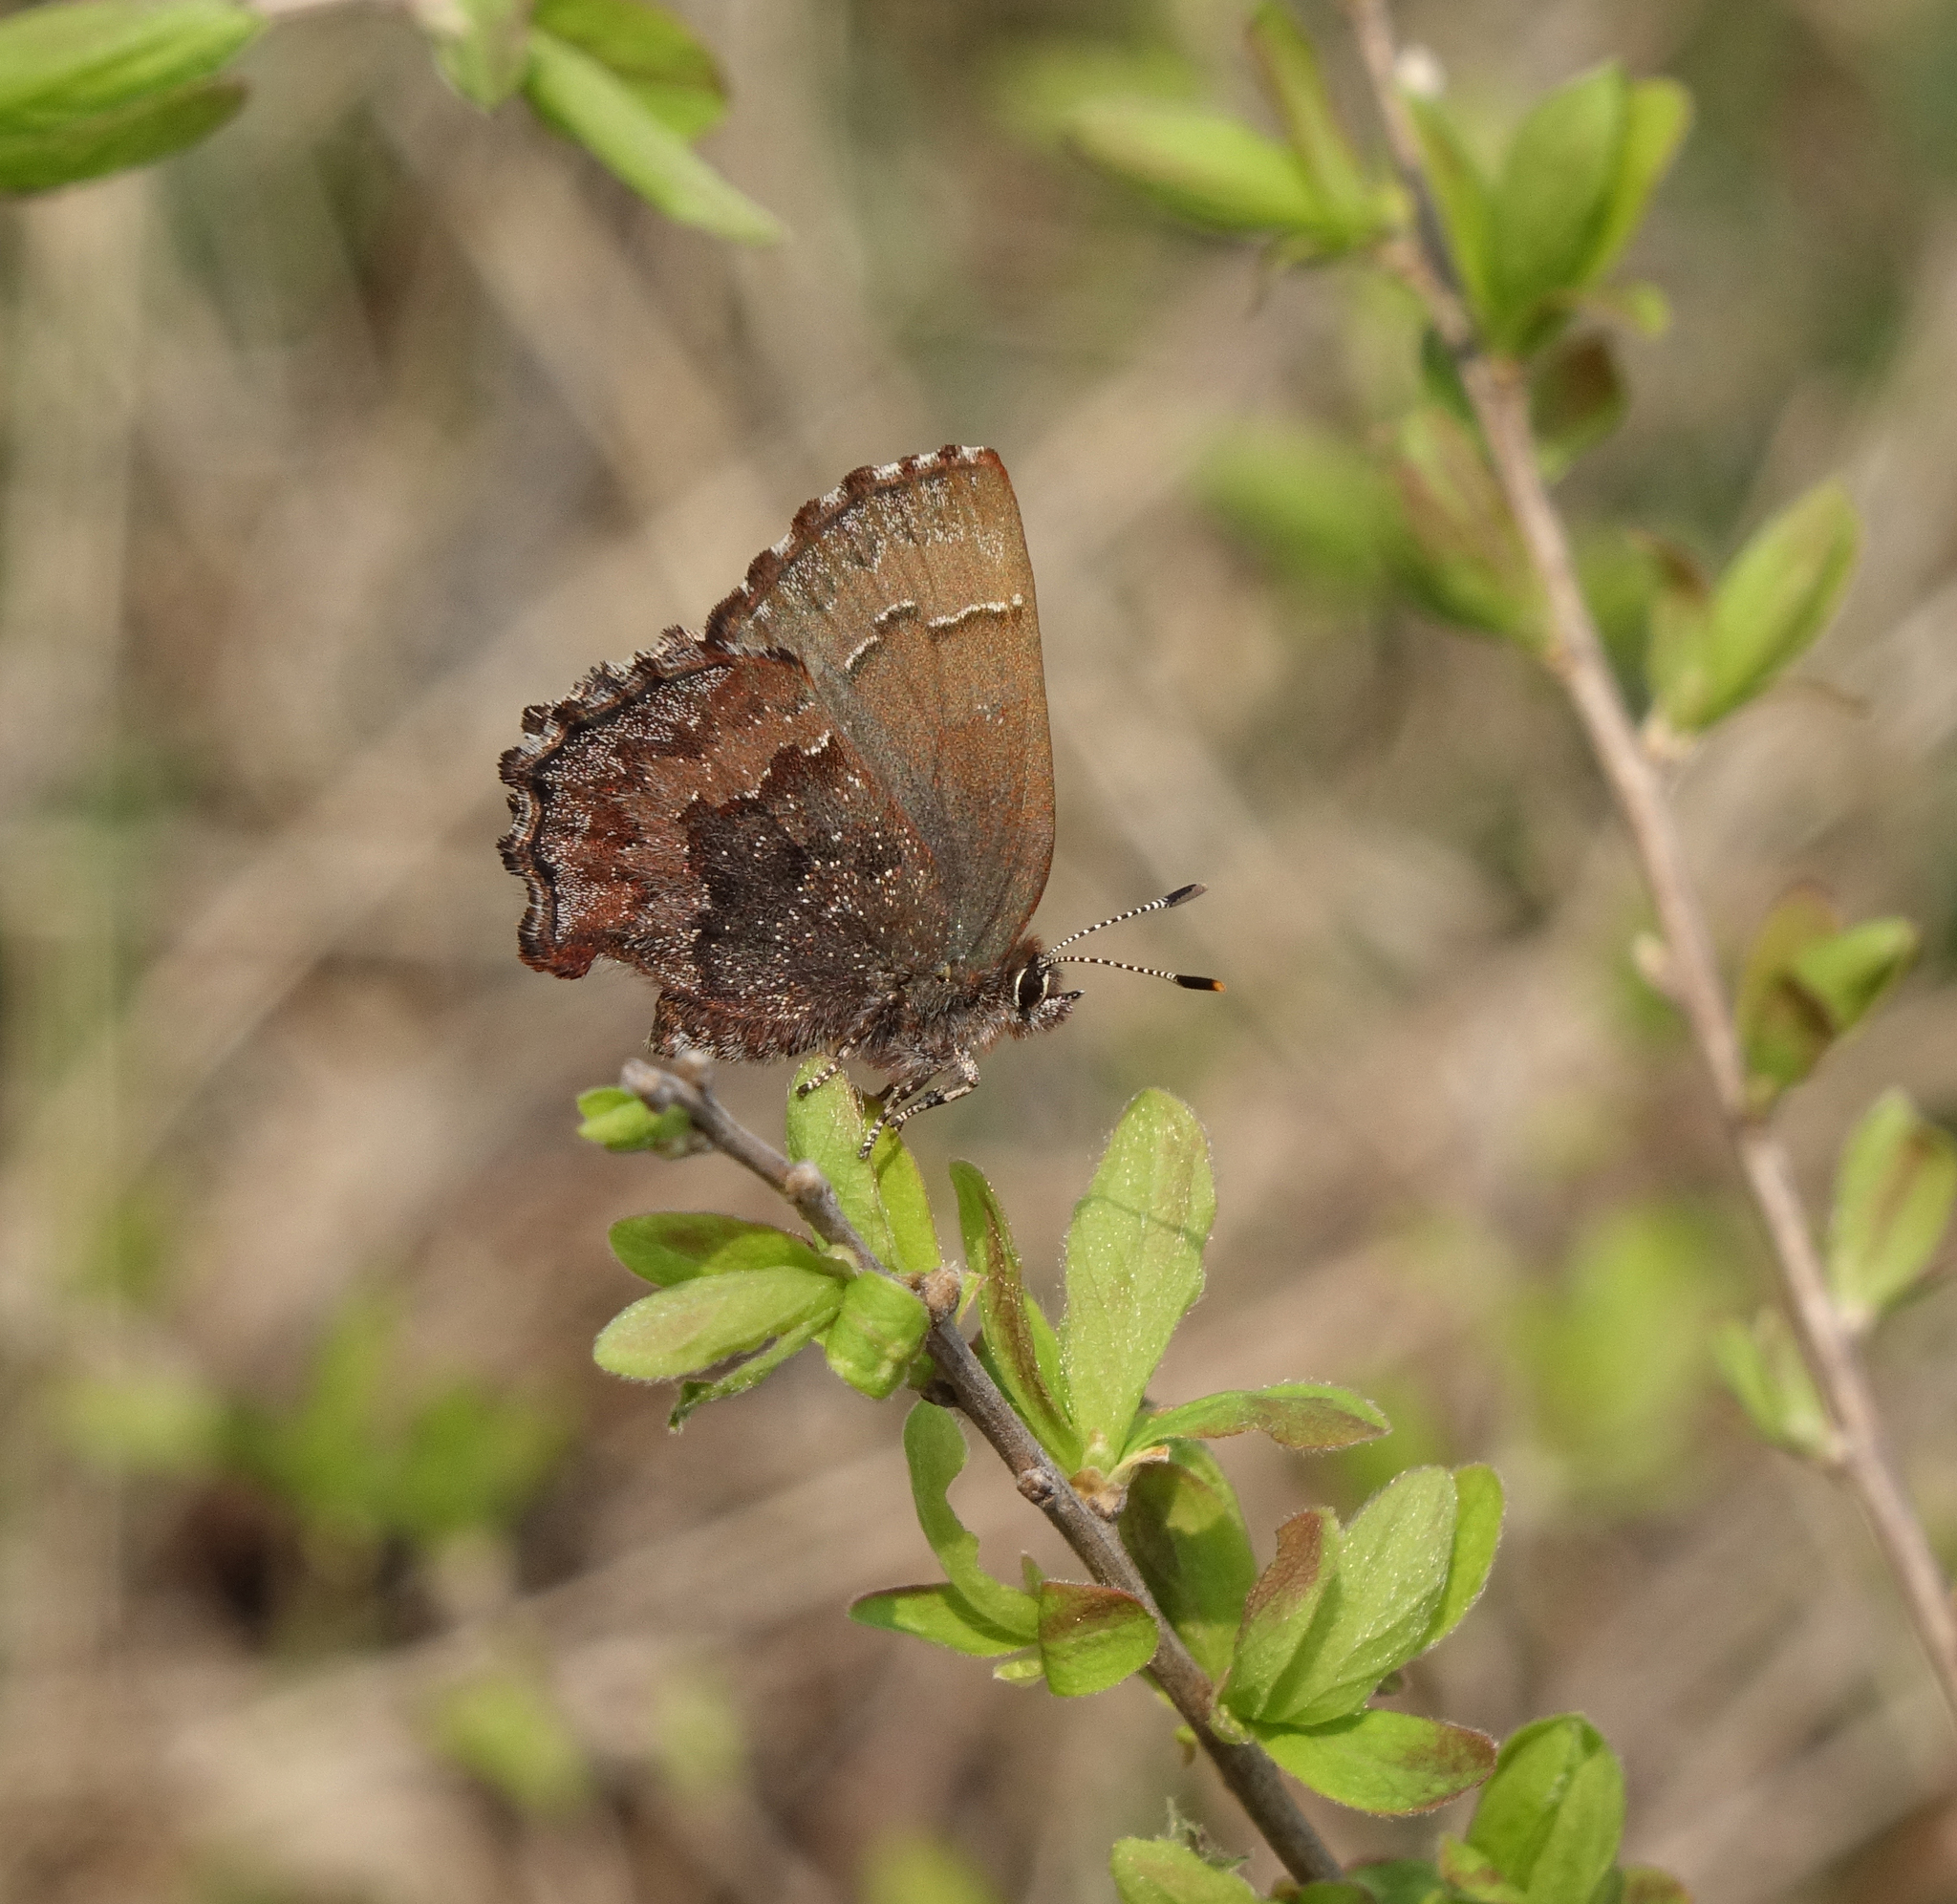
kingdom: Animalia
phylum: Arthropoda
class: Insecta
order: Lepidoptera
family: Lycaenidae
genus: Ginzia
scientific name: Ginzia Ahlbergia frivaldszkyi
